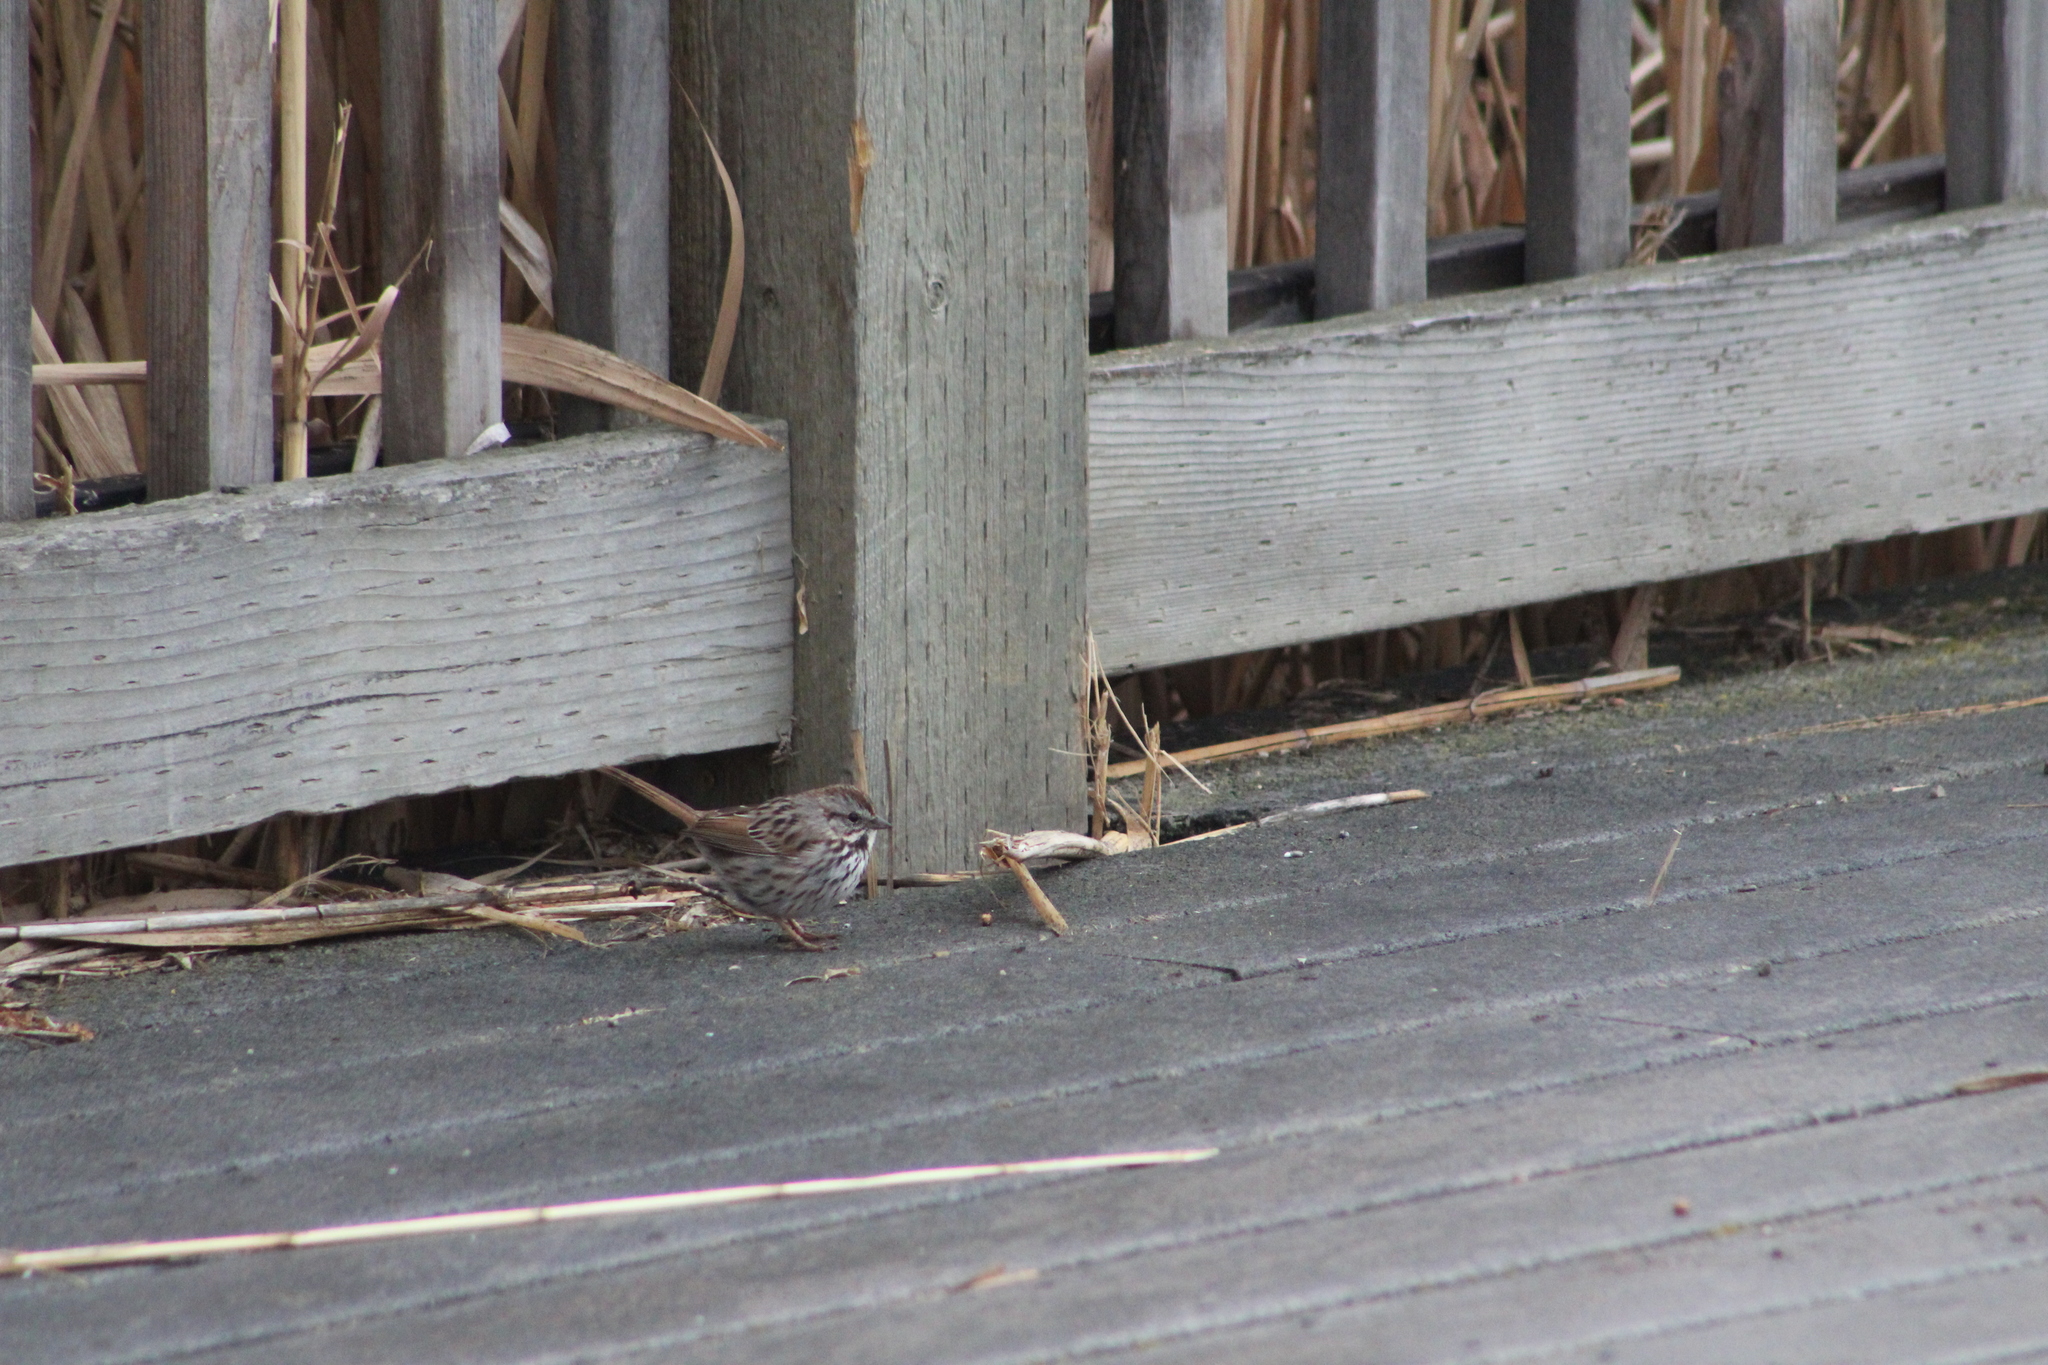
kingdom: Animalia
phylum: Chordata
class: Aves
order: Passeriformes
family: Passerellidae
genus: Melospiza
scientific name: Melospiza melodia
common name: Song sparrow
